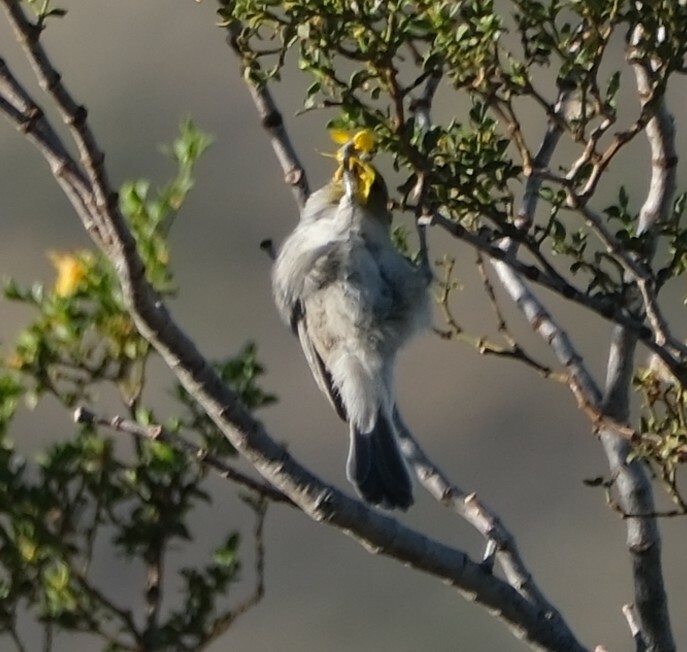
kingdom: Animalia
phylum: Chordata
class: Aves
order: Passeriformes
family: Remizidae
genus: Auriparus
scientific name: Auriparus flaviceps
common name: Verdin
